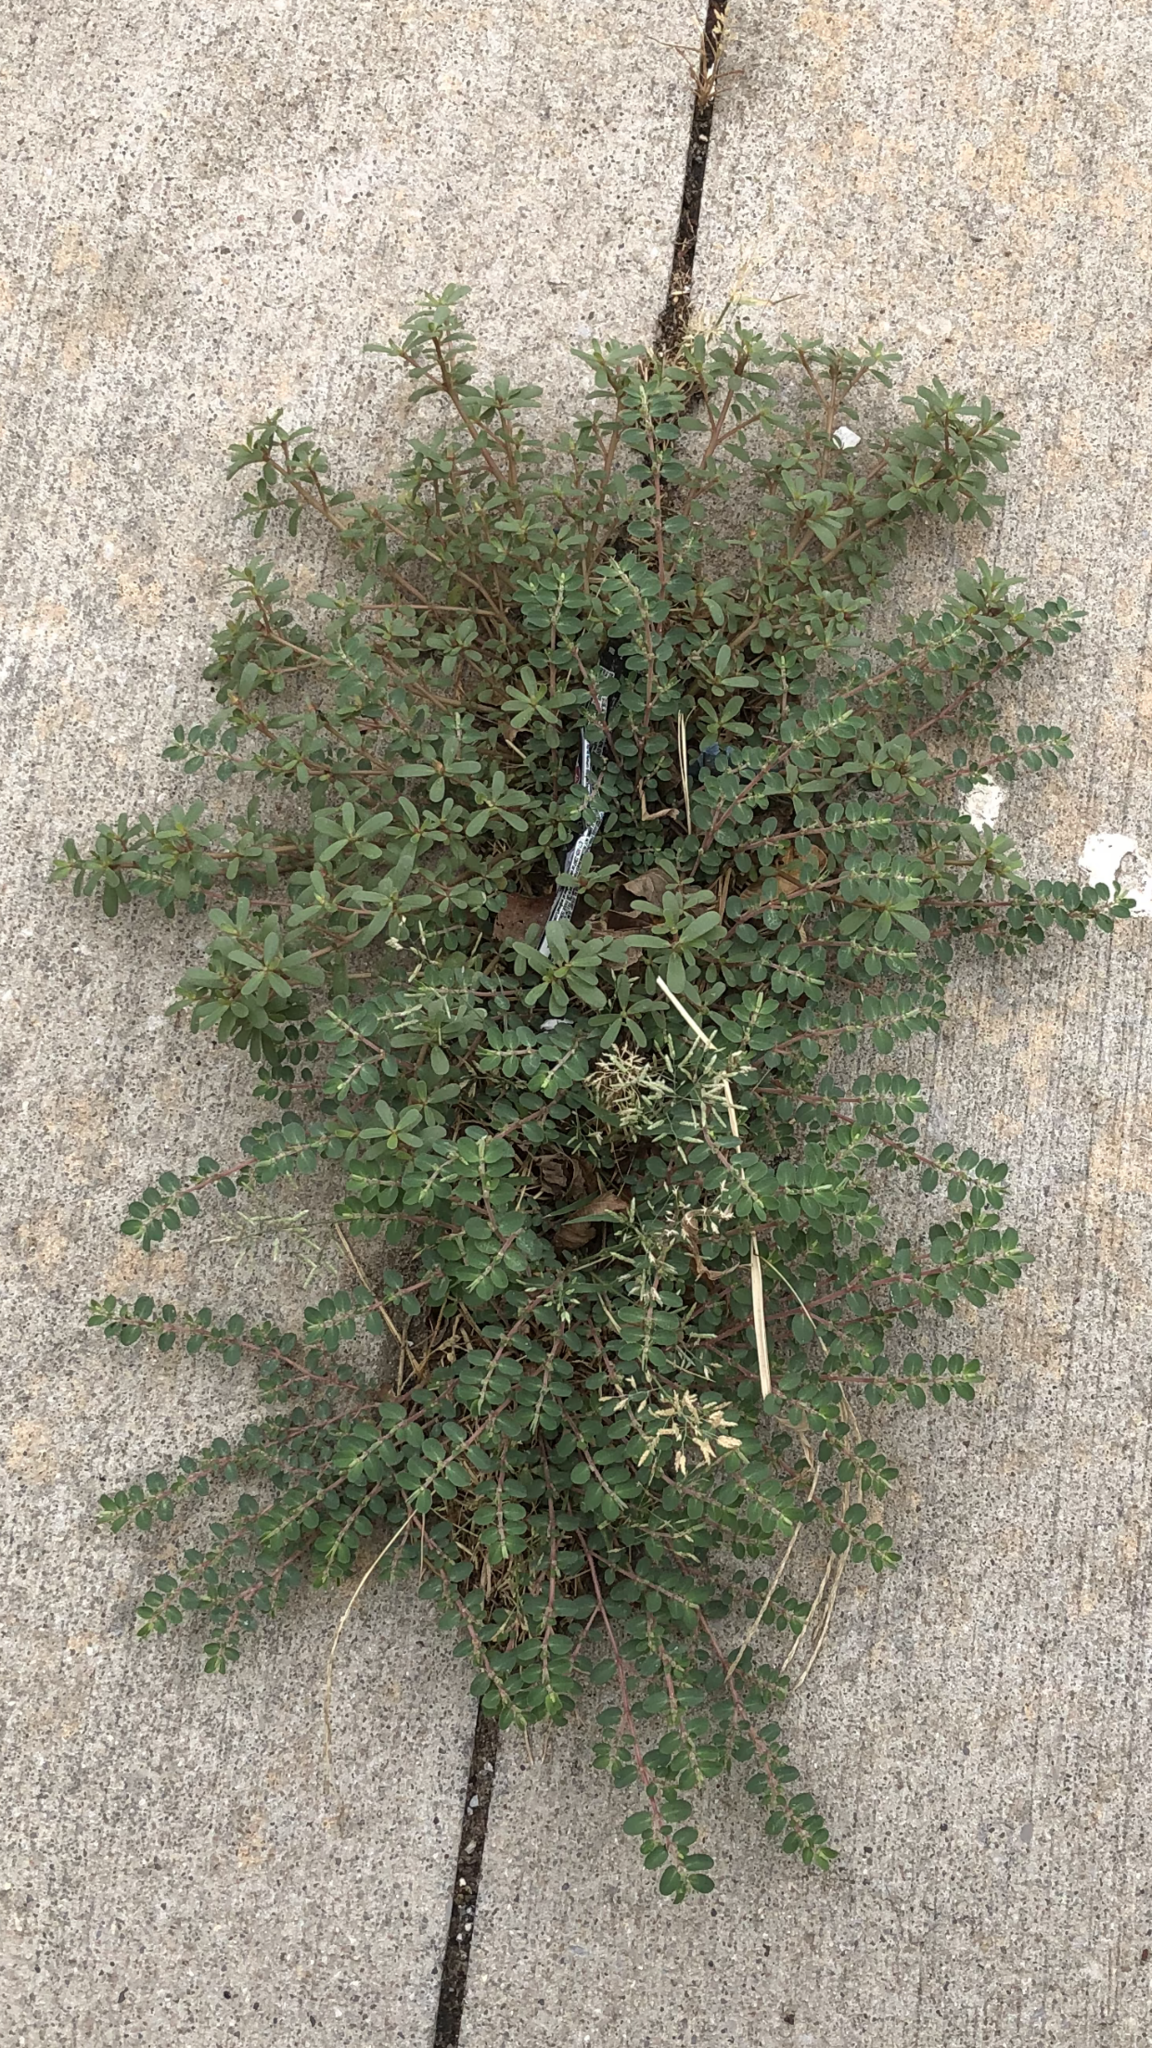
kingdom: Plantae
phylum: Tracheophyta
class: Magnoliopsida
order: Malpighiales
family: Euphorbiaceae
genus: Euphorbia
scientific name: Euphorbia prostrata
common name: Prostrate sandmat
